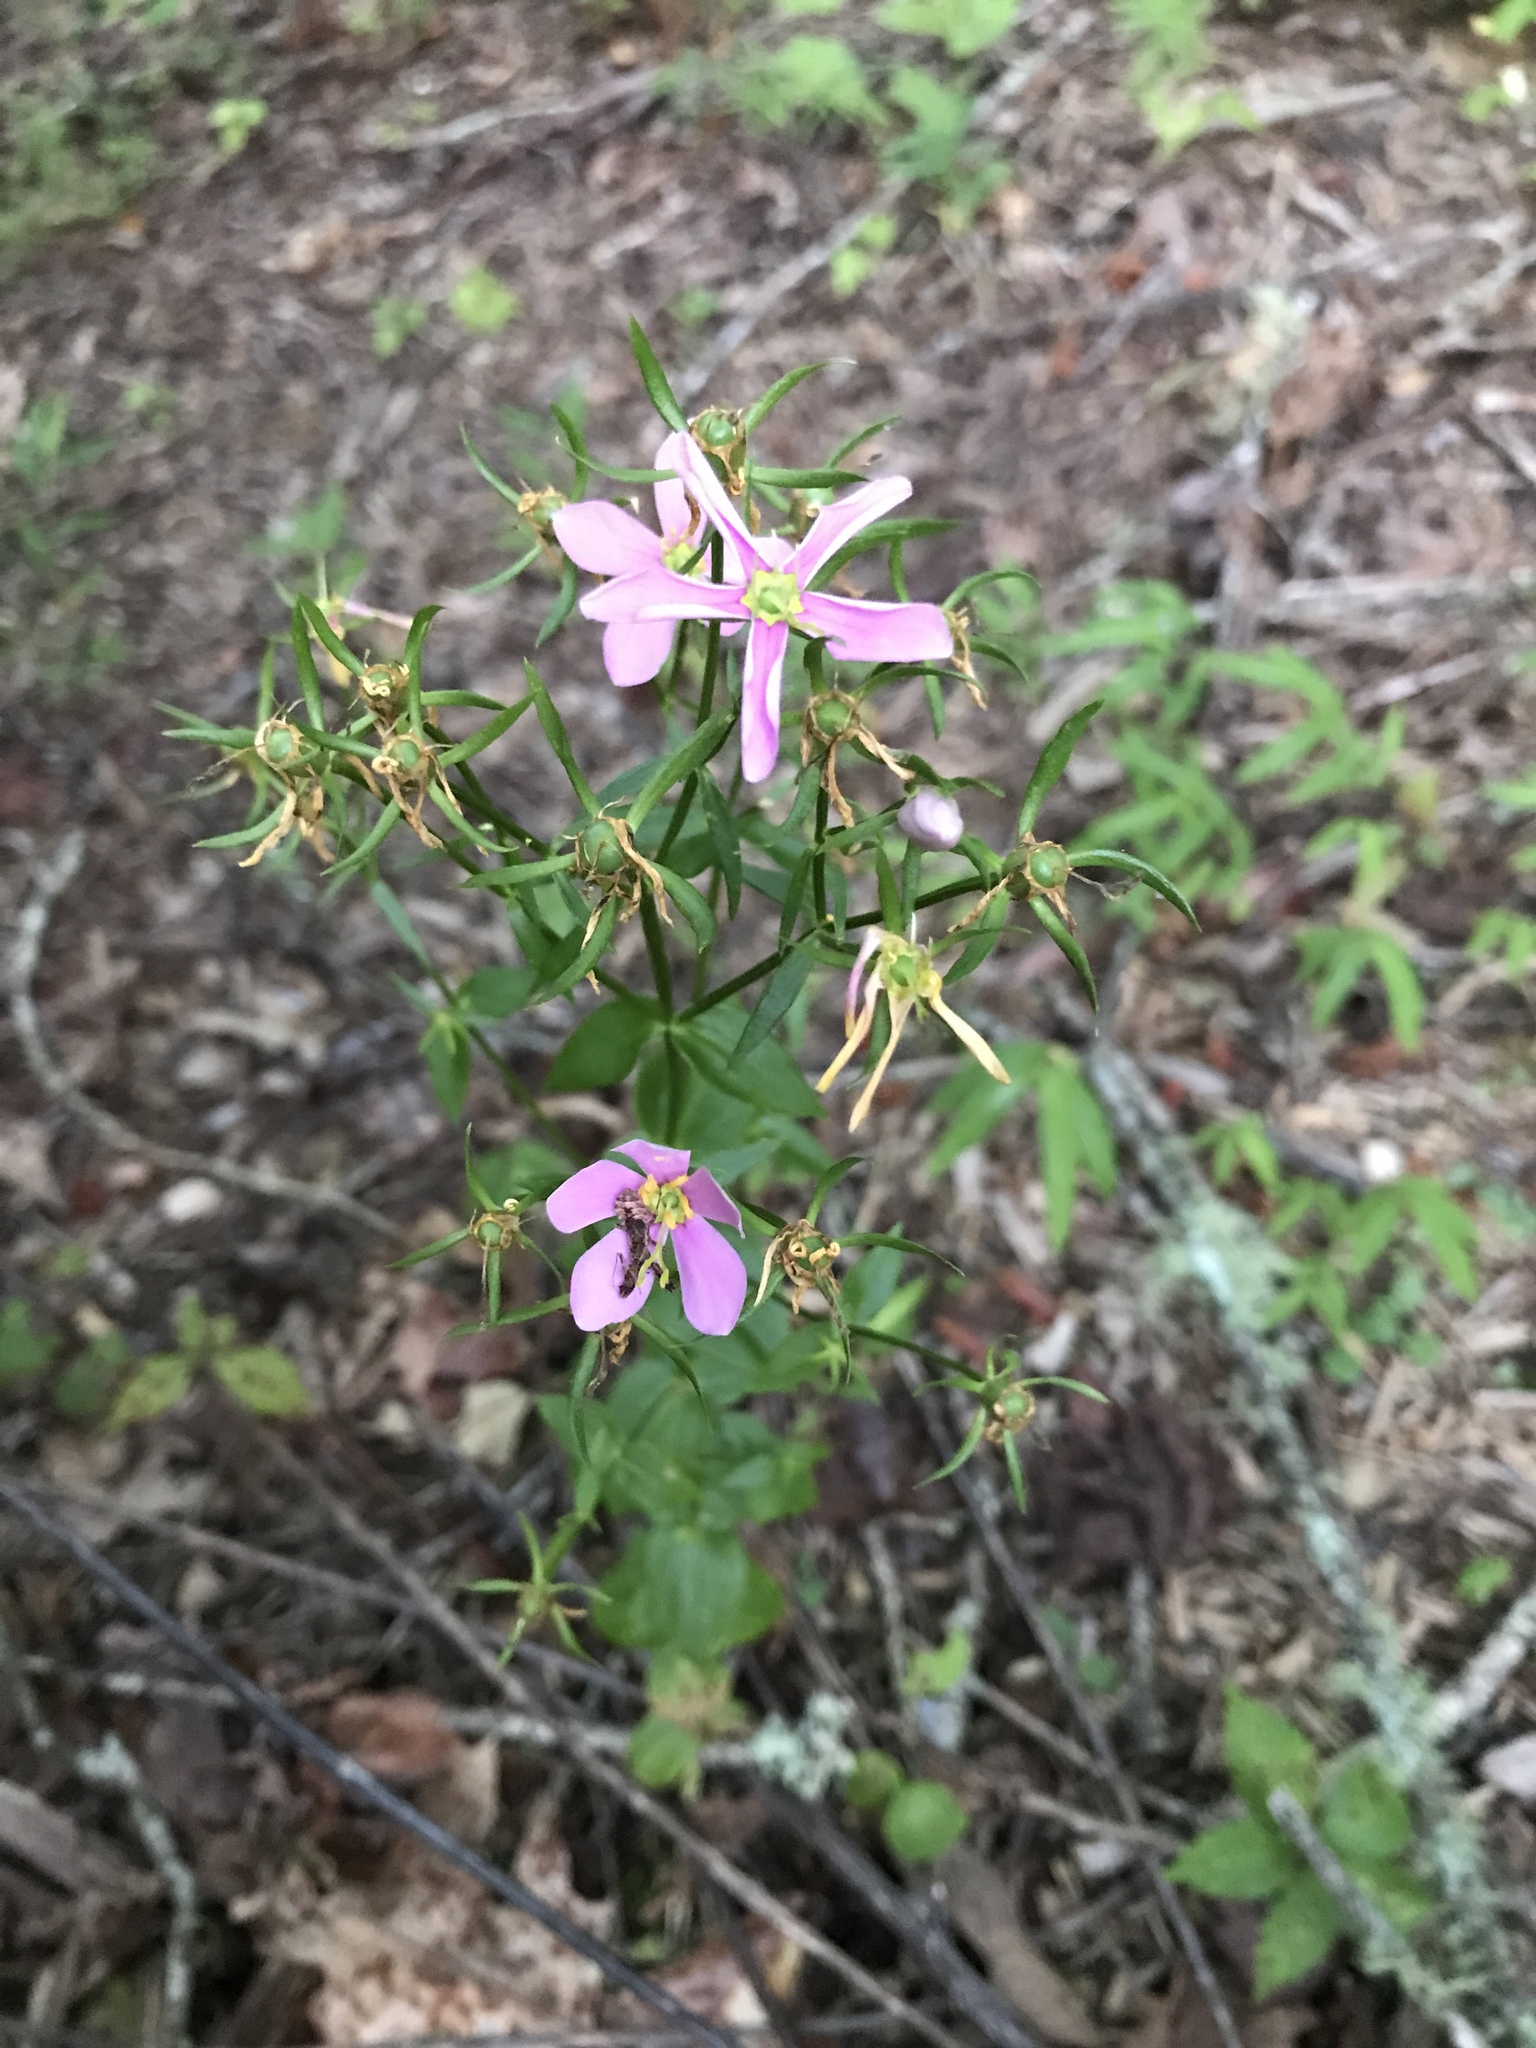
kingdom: Plantae
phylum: Tracheophyta
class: Magnoliopsida
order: Gentianales
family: Gentianaceae
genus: Sabatia
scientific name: Sabatia angularis
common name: Rose-pink
